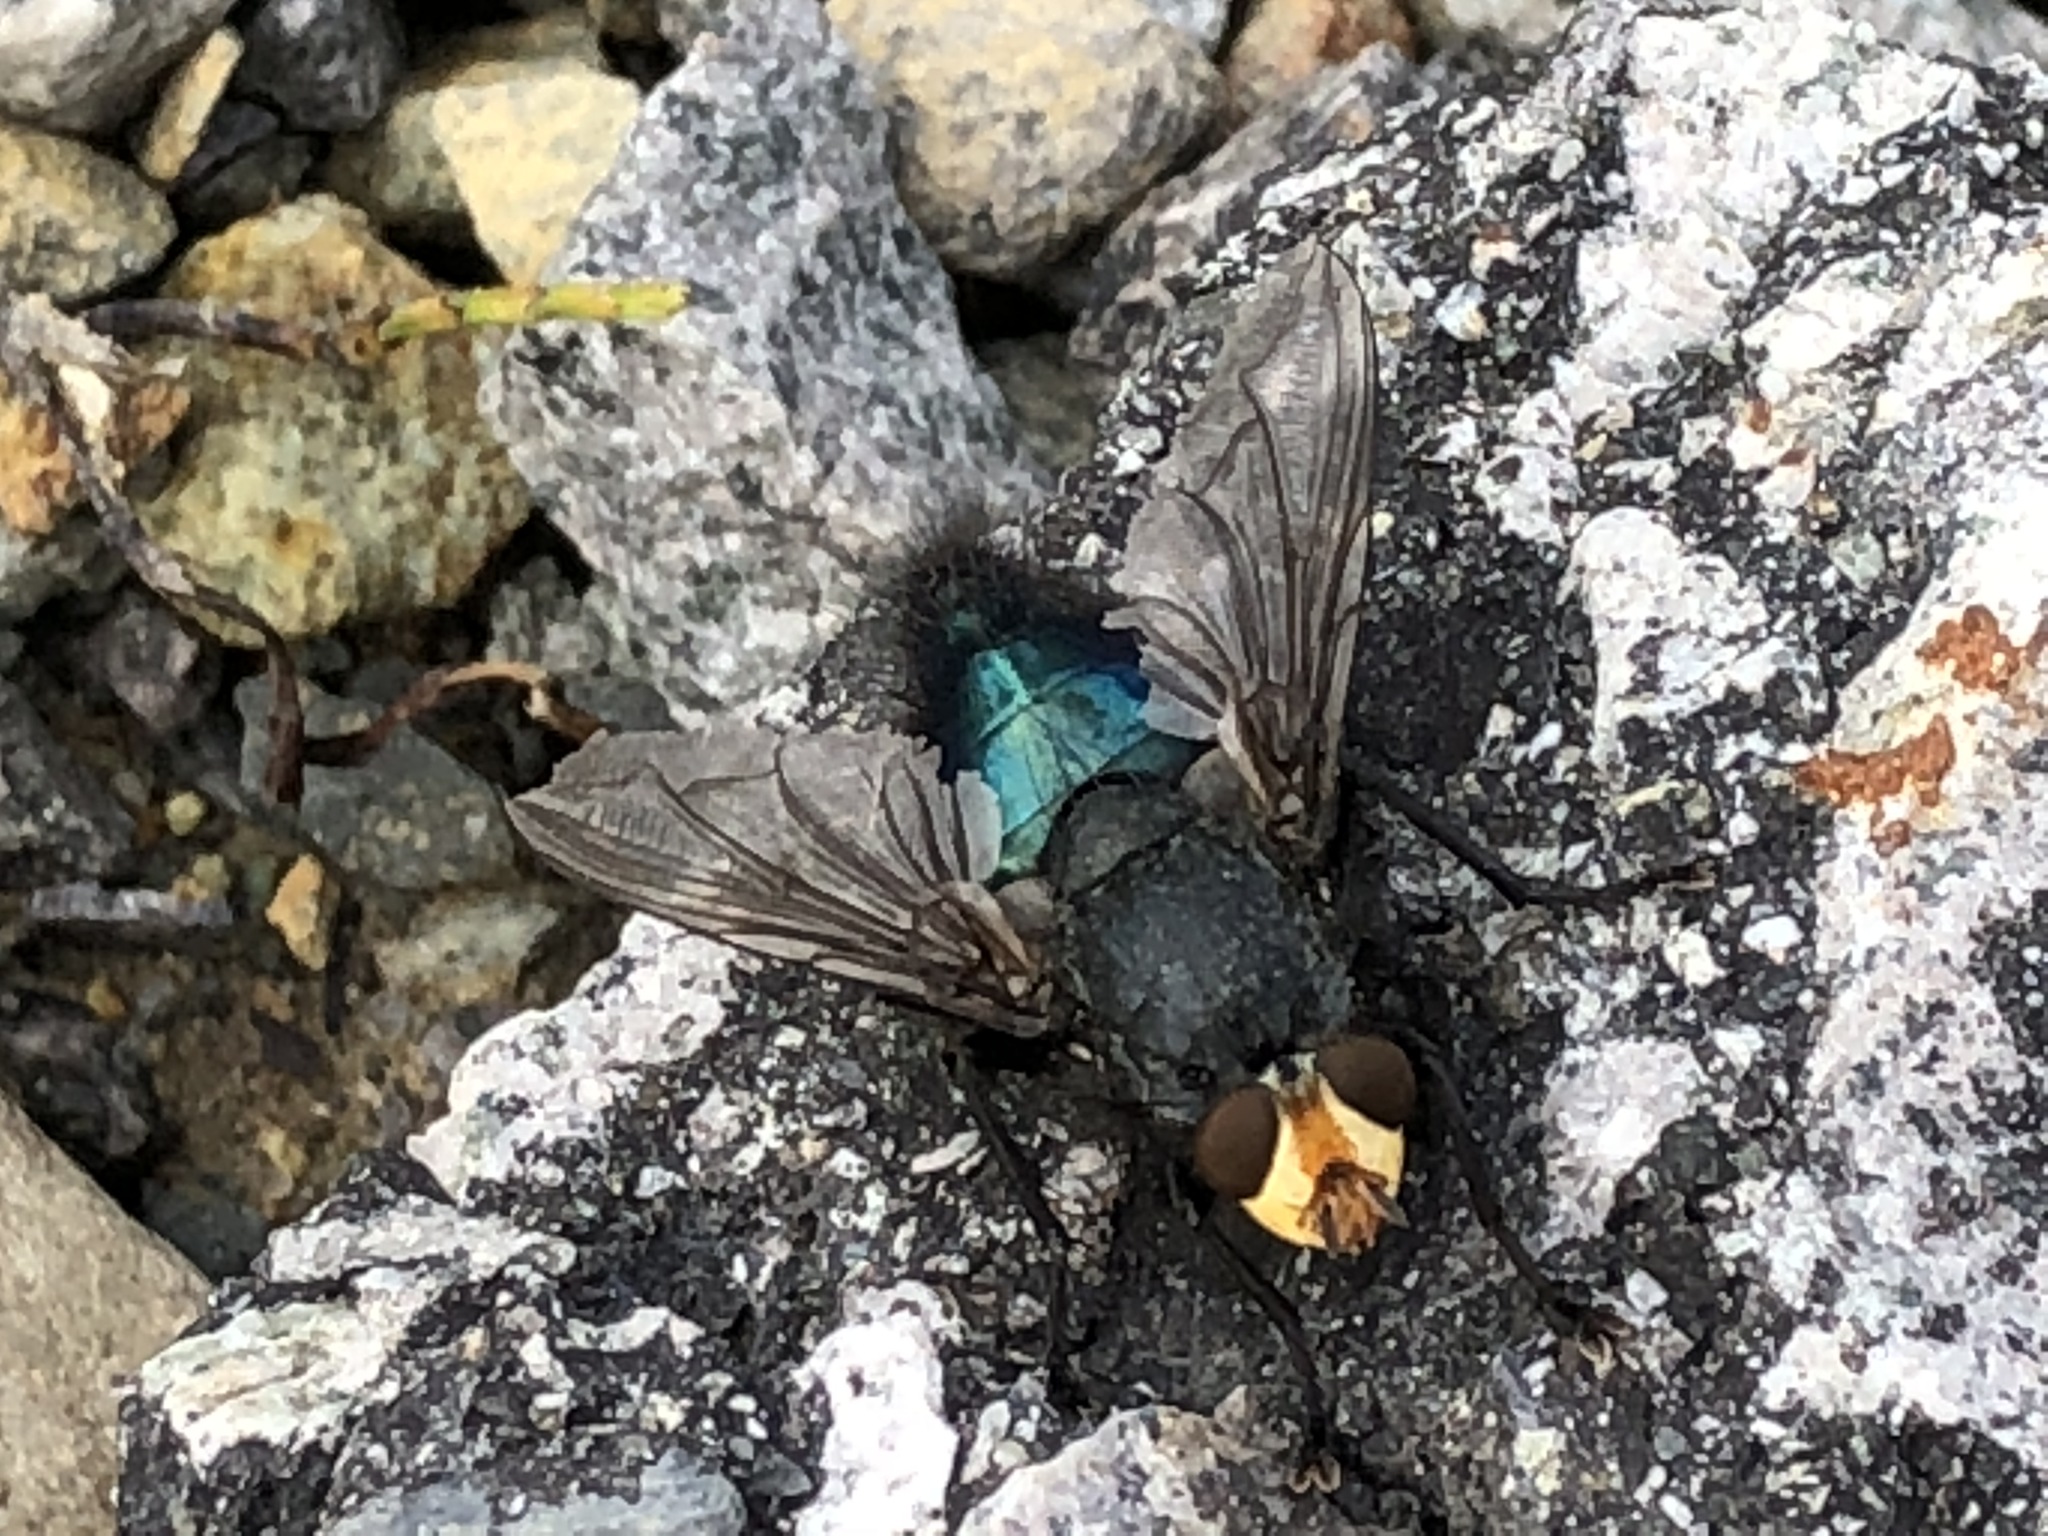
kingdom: Animalia
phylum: Arthropoda
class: Insecta
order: Diptera
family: Calliphoridae
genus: Cynomya
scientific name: Cynomya mortuorum
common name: Bluebottle blow fly
